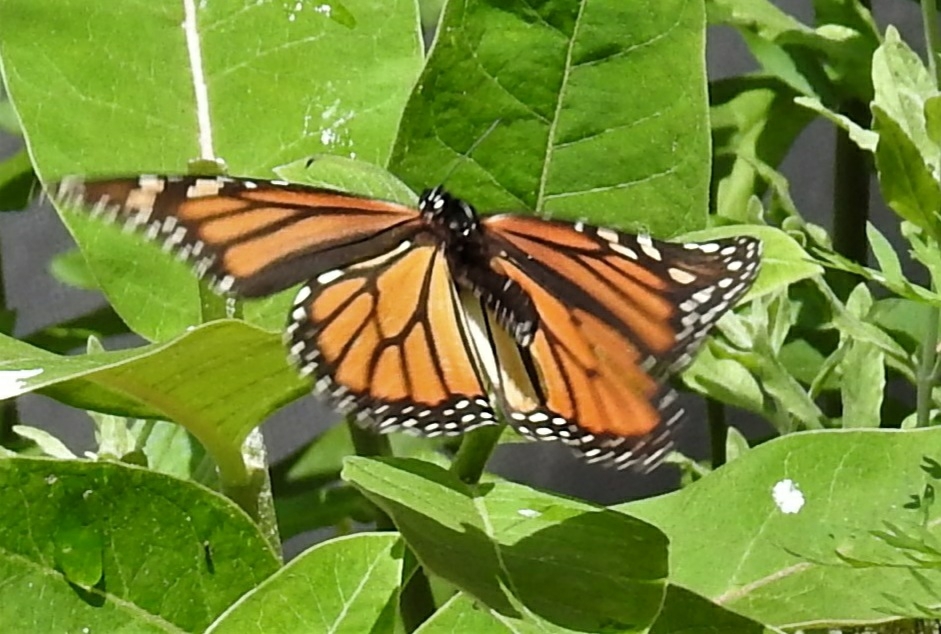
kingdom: Animalia
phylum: Arthropoda
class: Insecta
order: Lepidoptera
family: Nymphalidae
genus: Danaus
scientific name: Danaus plexippus
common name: Monarch
